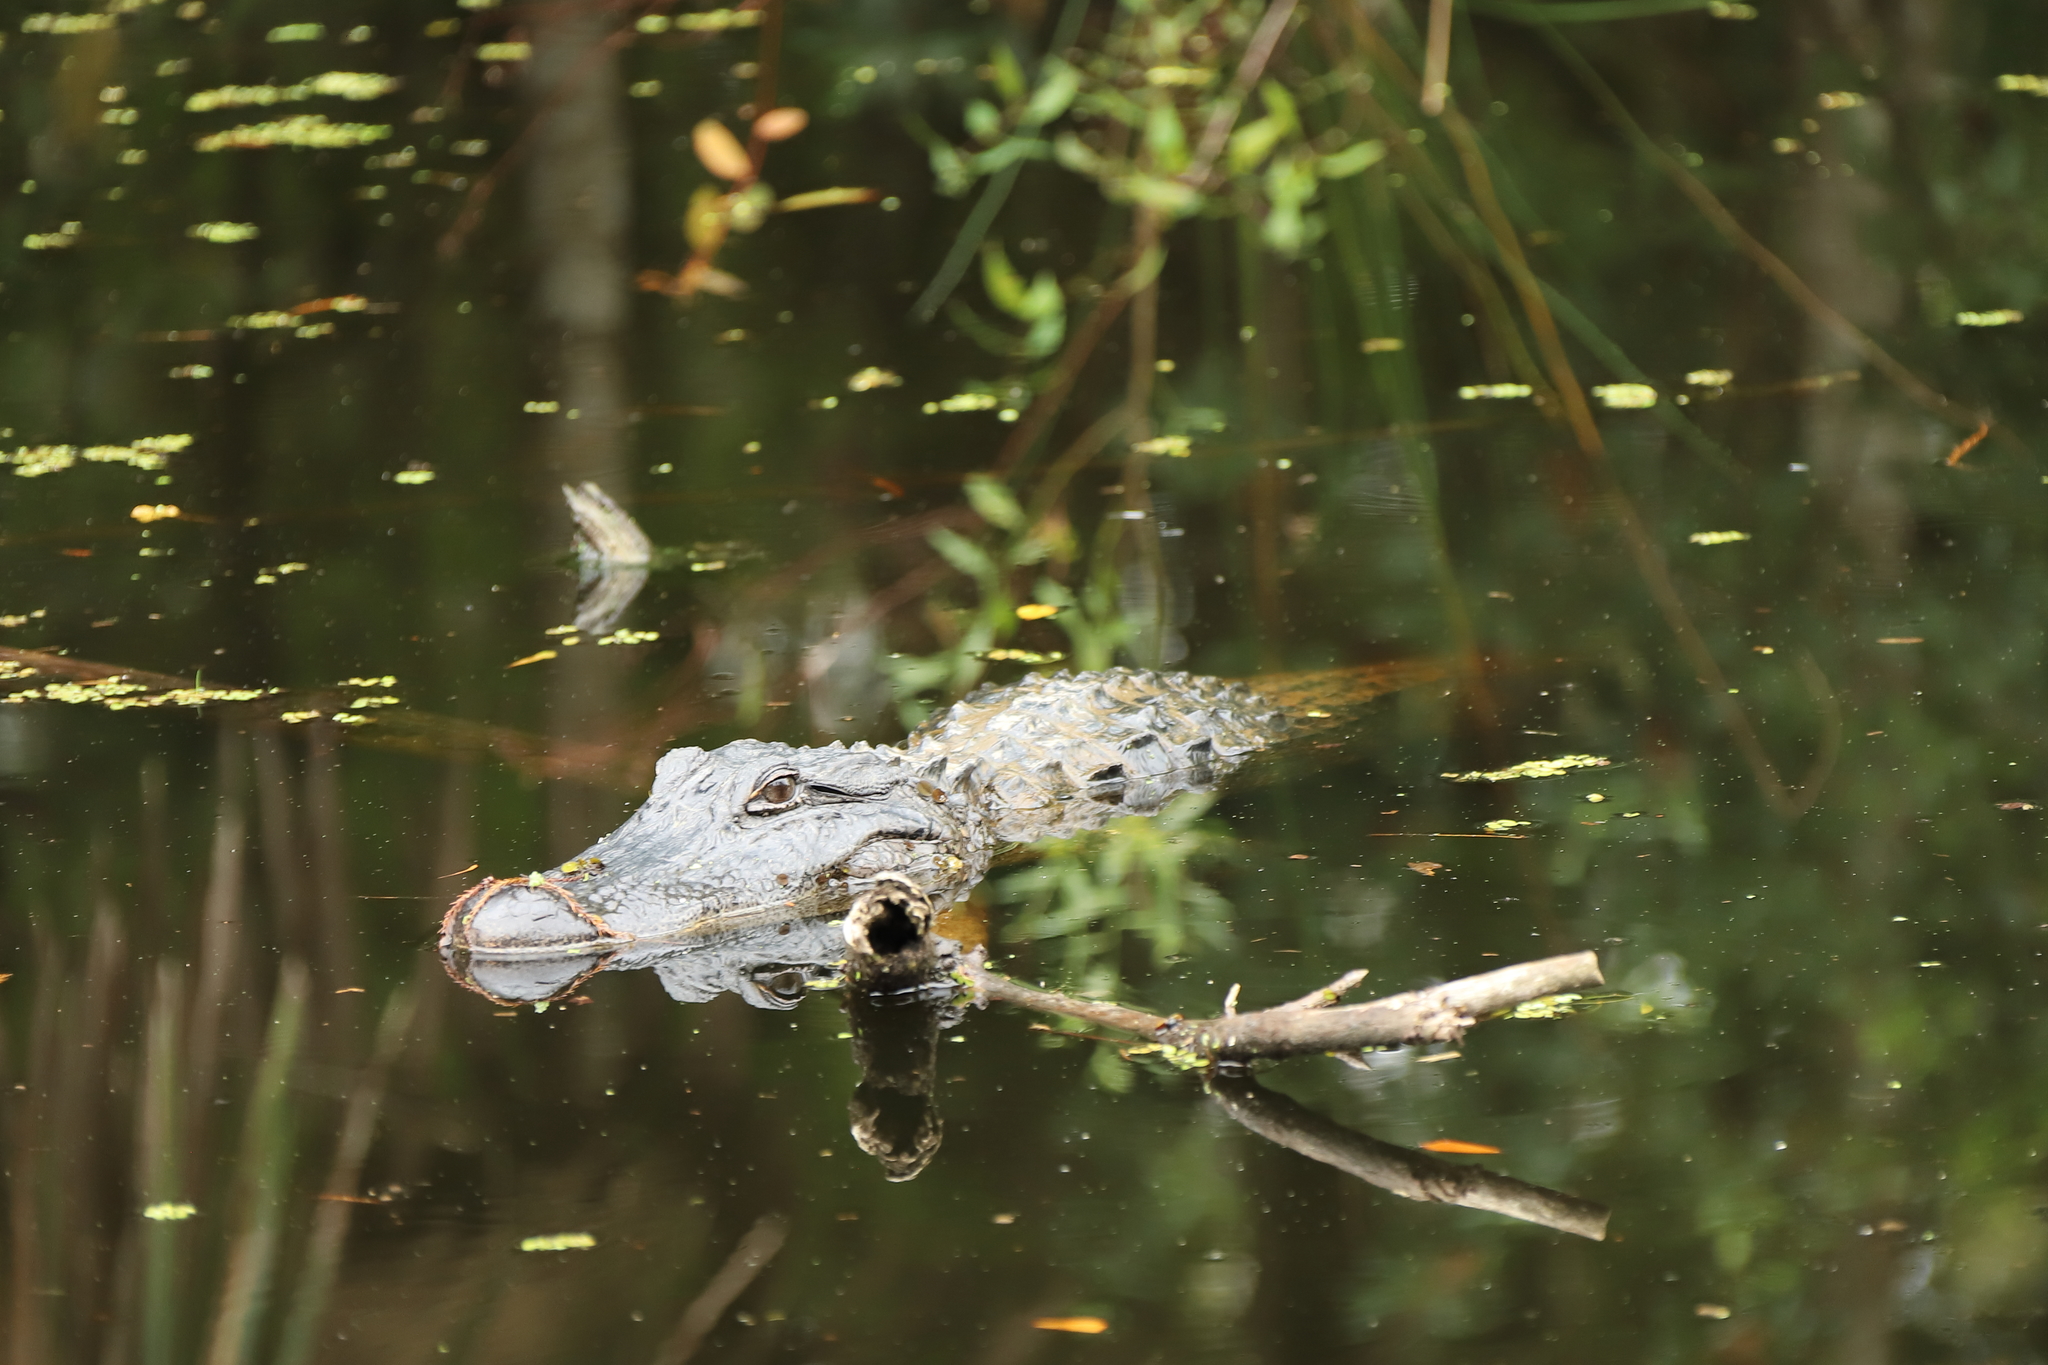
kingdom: Animalia
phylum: Chordata
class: Crocodylia
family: Alligatoridae
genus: Alligator
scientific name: Alligator mississippiensis
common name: American alligator
